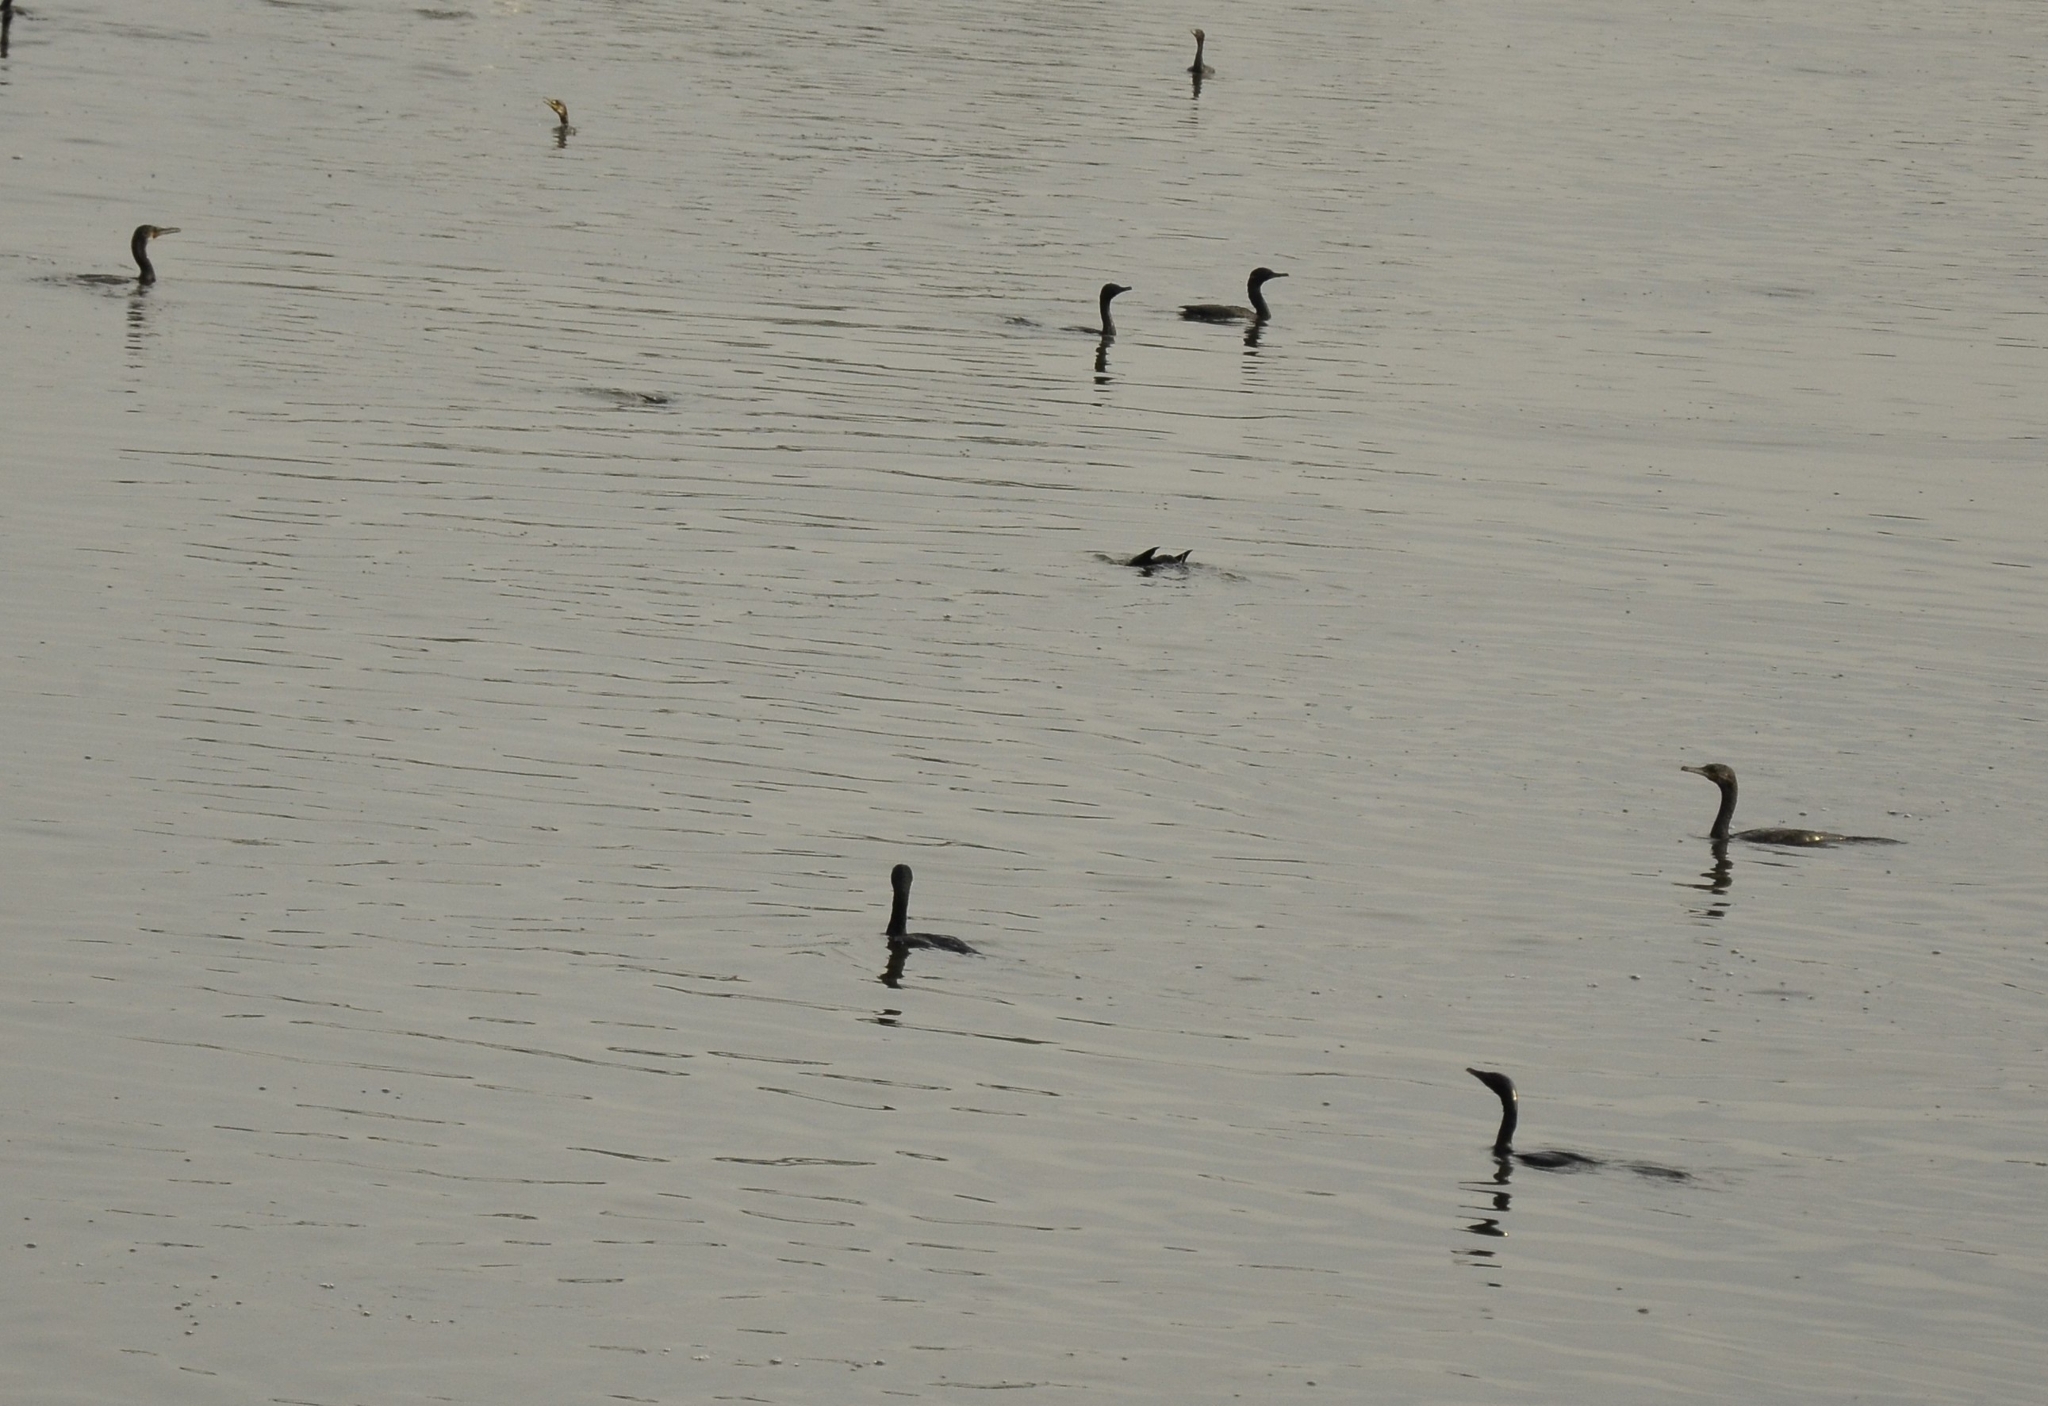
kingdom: Animalia
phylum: Chordata
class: Aves
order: Suliformes
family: Phalacrocoracidae
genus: Microcarbo
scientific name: Microcarbo niger
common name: Little cormorant
